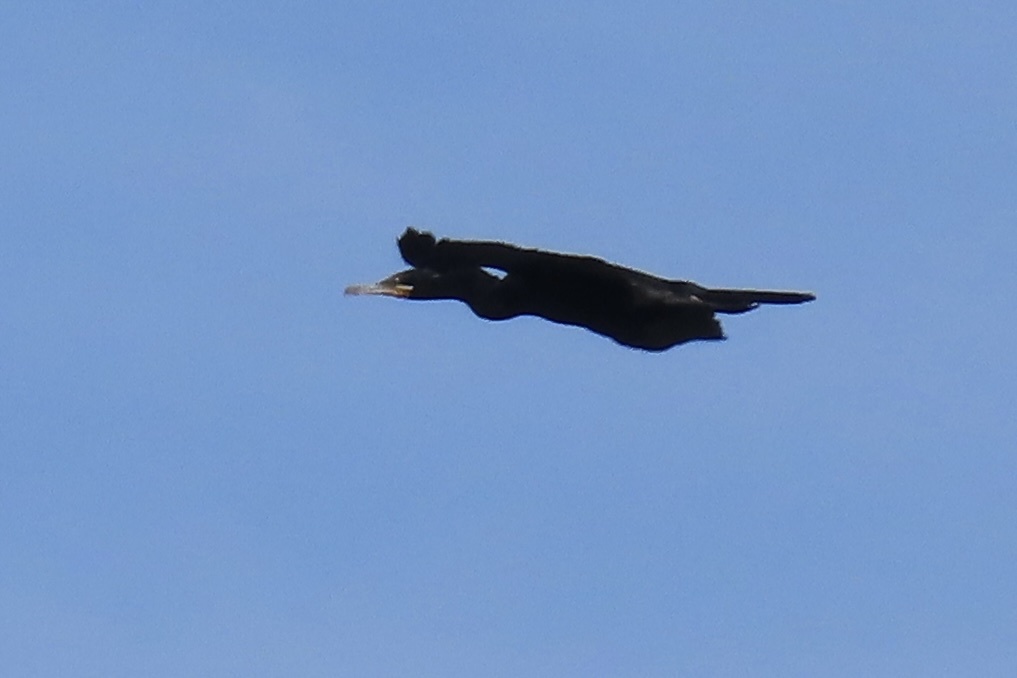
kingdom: Animalia
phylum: Chordata
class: Aves
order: Suliformes
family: Phalacrocoracidae
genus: Phalacrocorax
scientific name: Phalacrocorax brasilianus
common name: Neotropic cormorant
